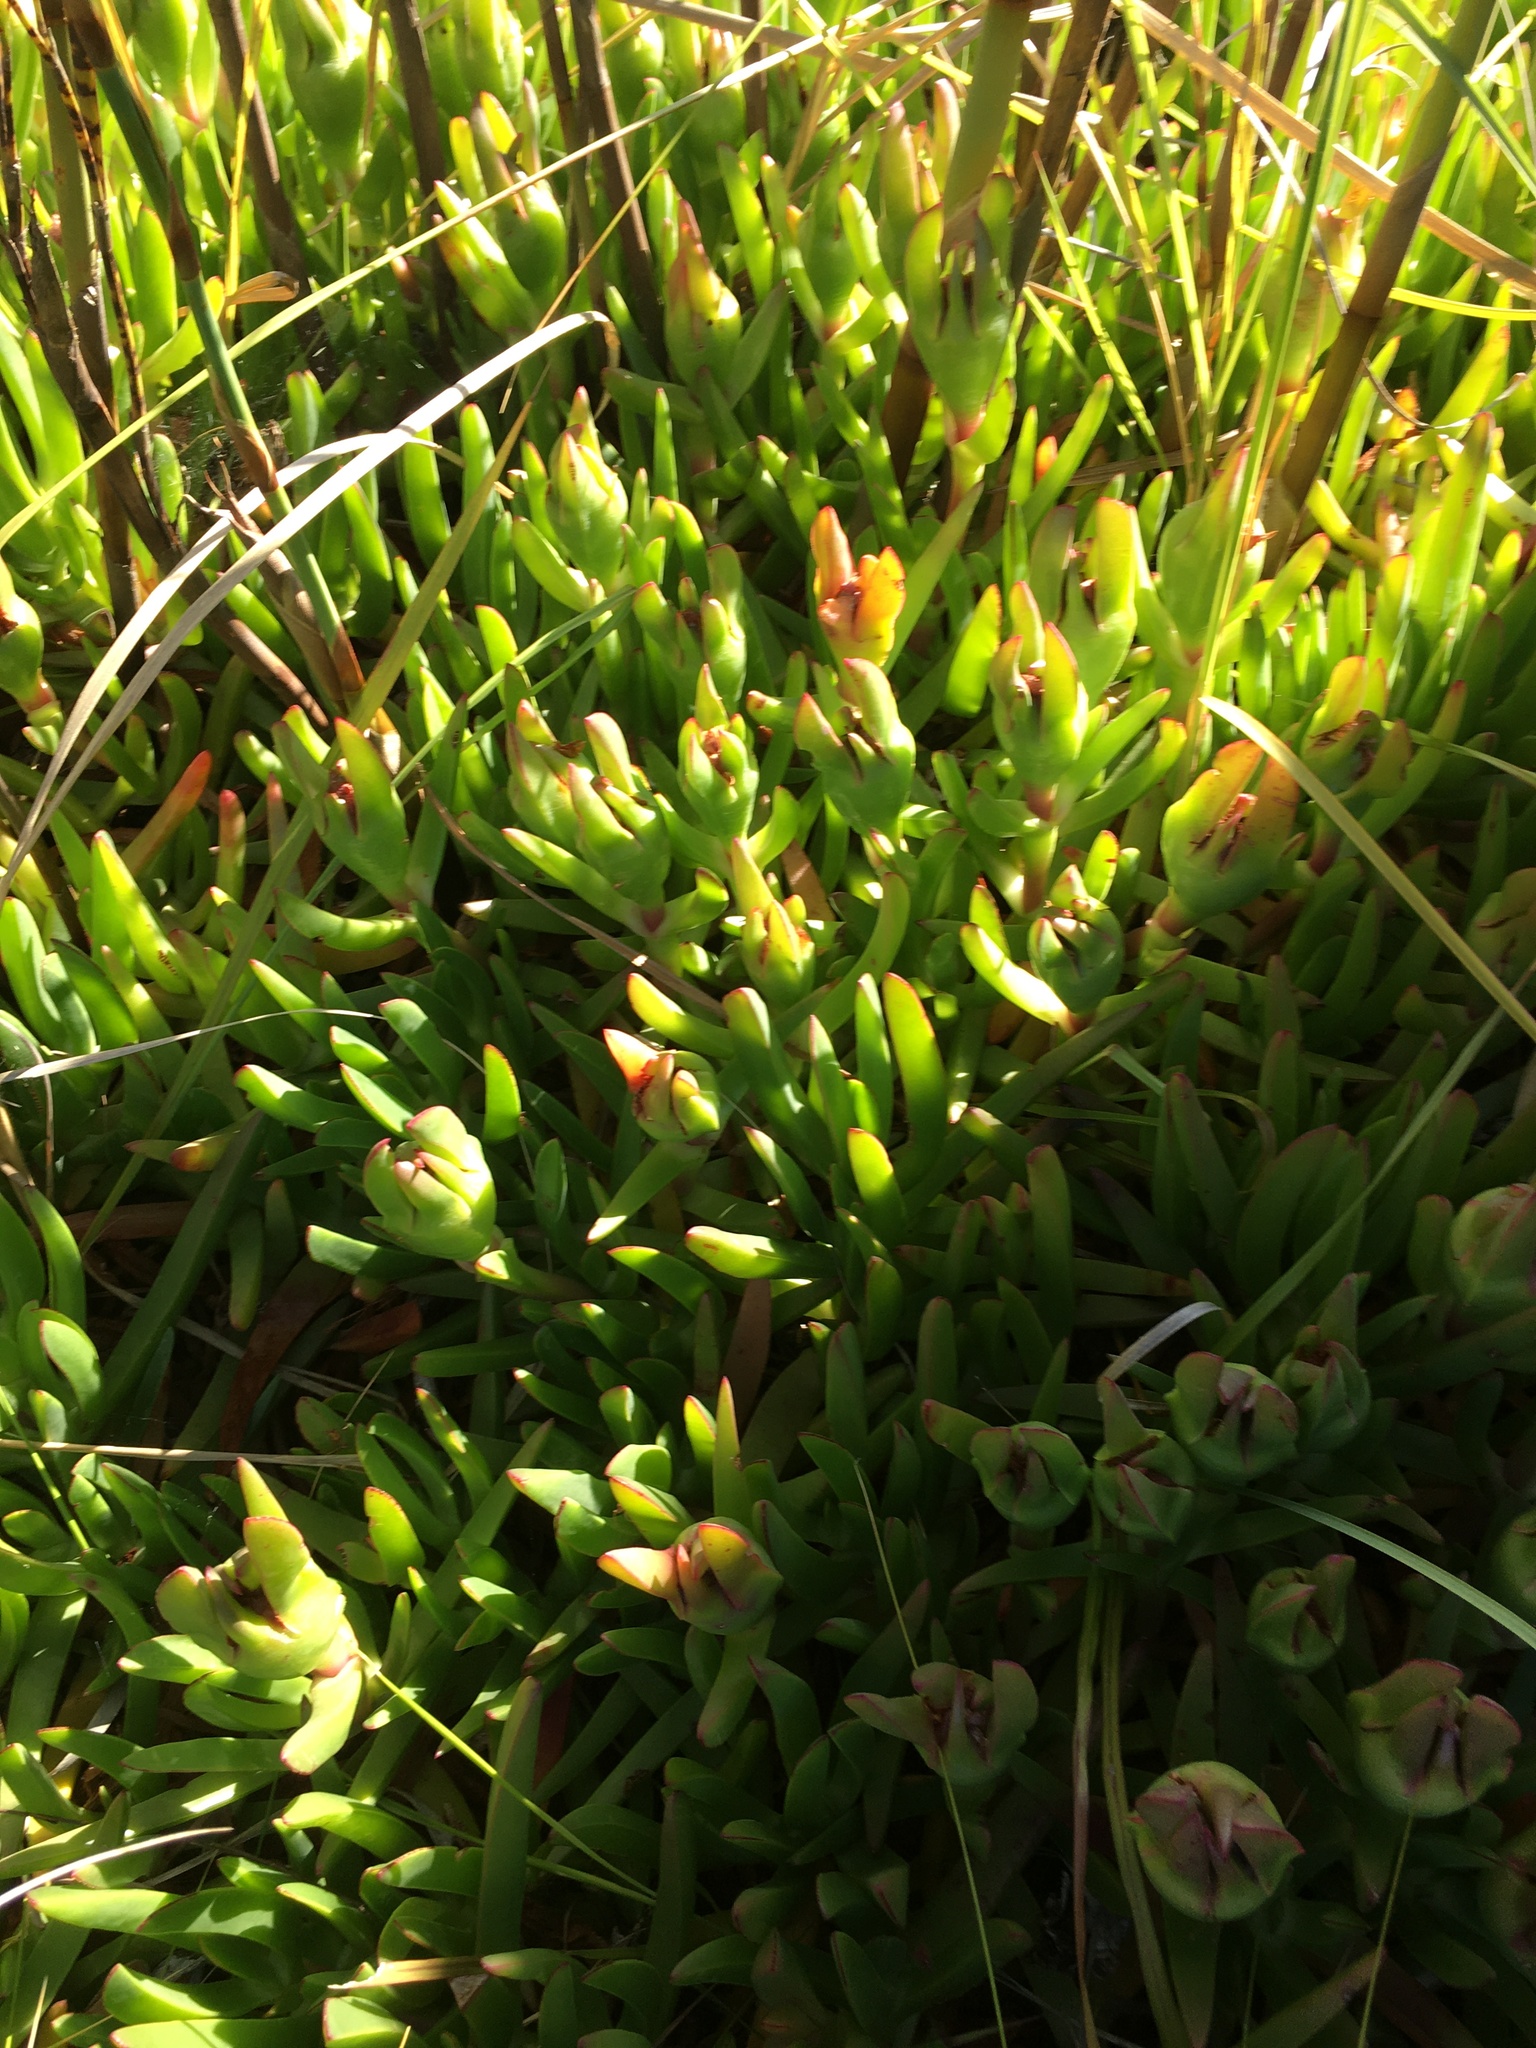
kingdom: Plantae
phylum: Tracheophyta
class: Magnoliopsida
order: Caryophyllales
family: Aizoaceae
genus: Carpobrotus
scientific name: Carpobrotus edulis
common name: Hottentot-fig
